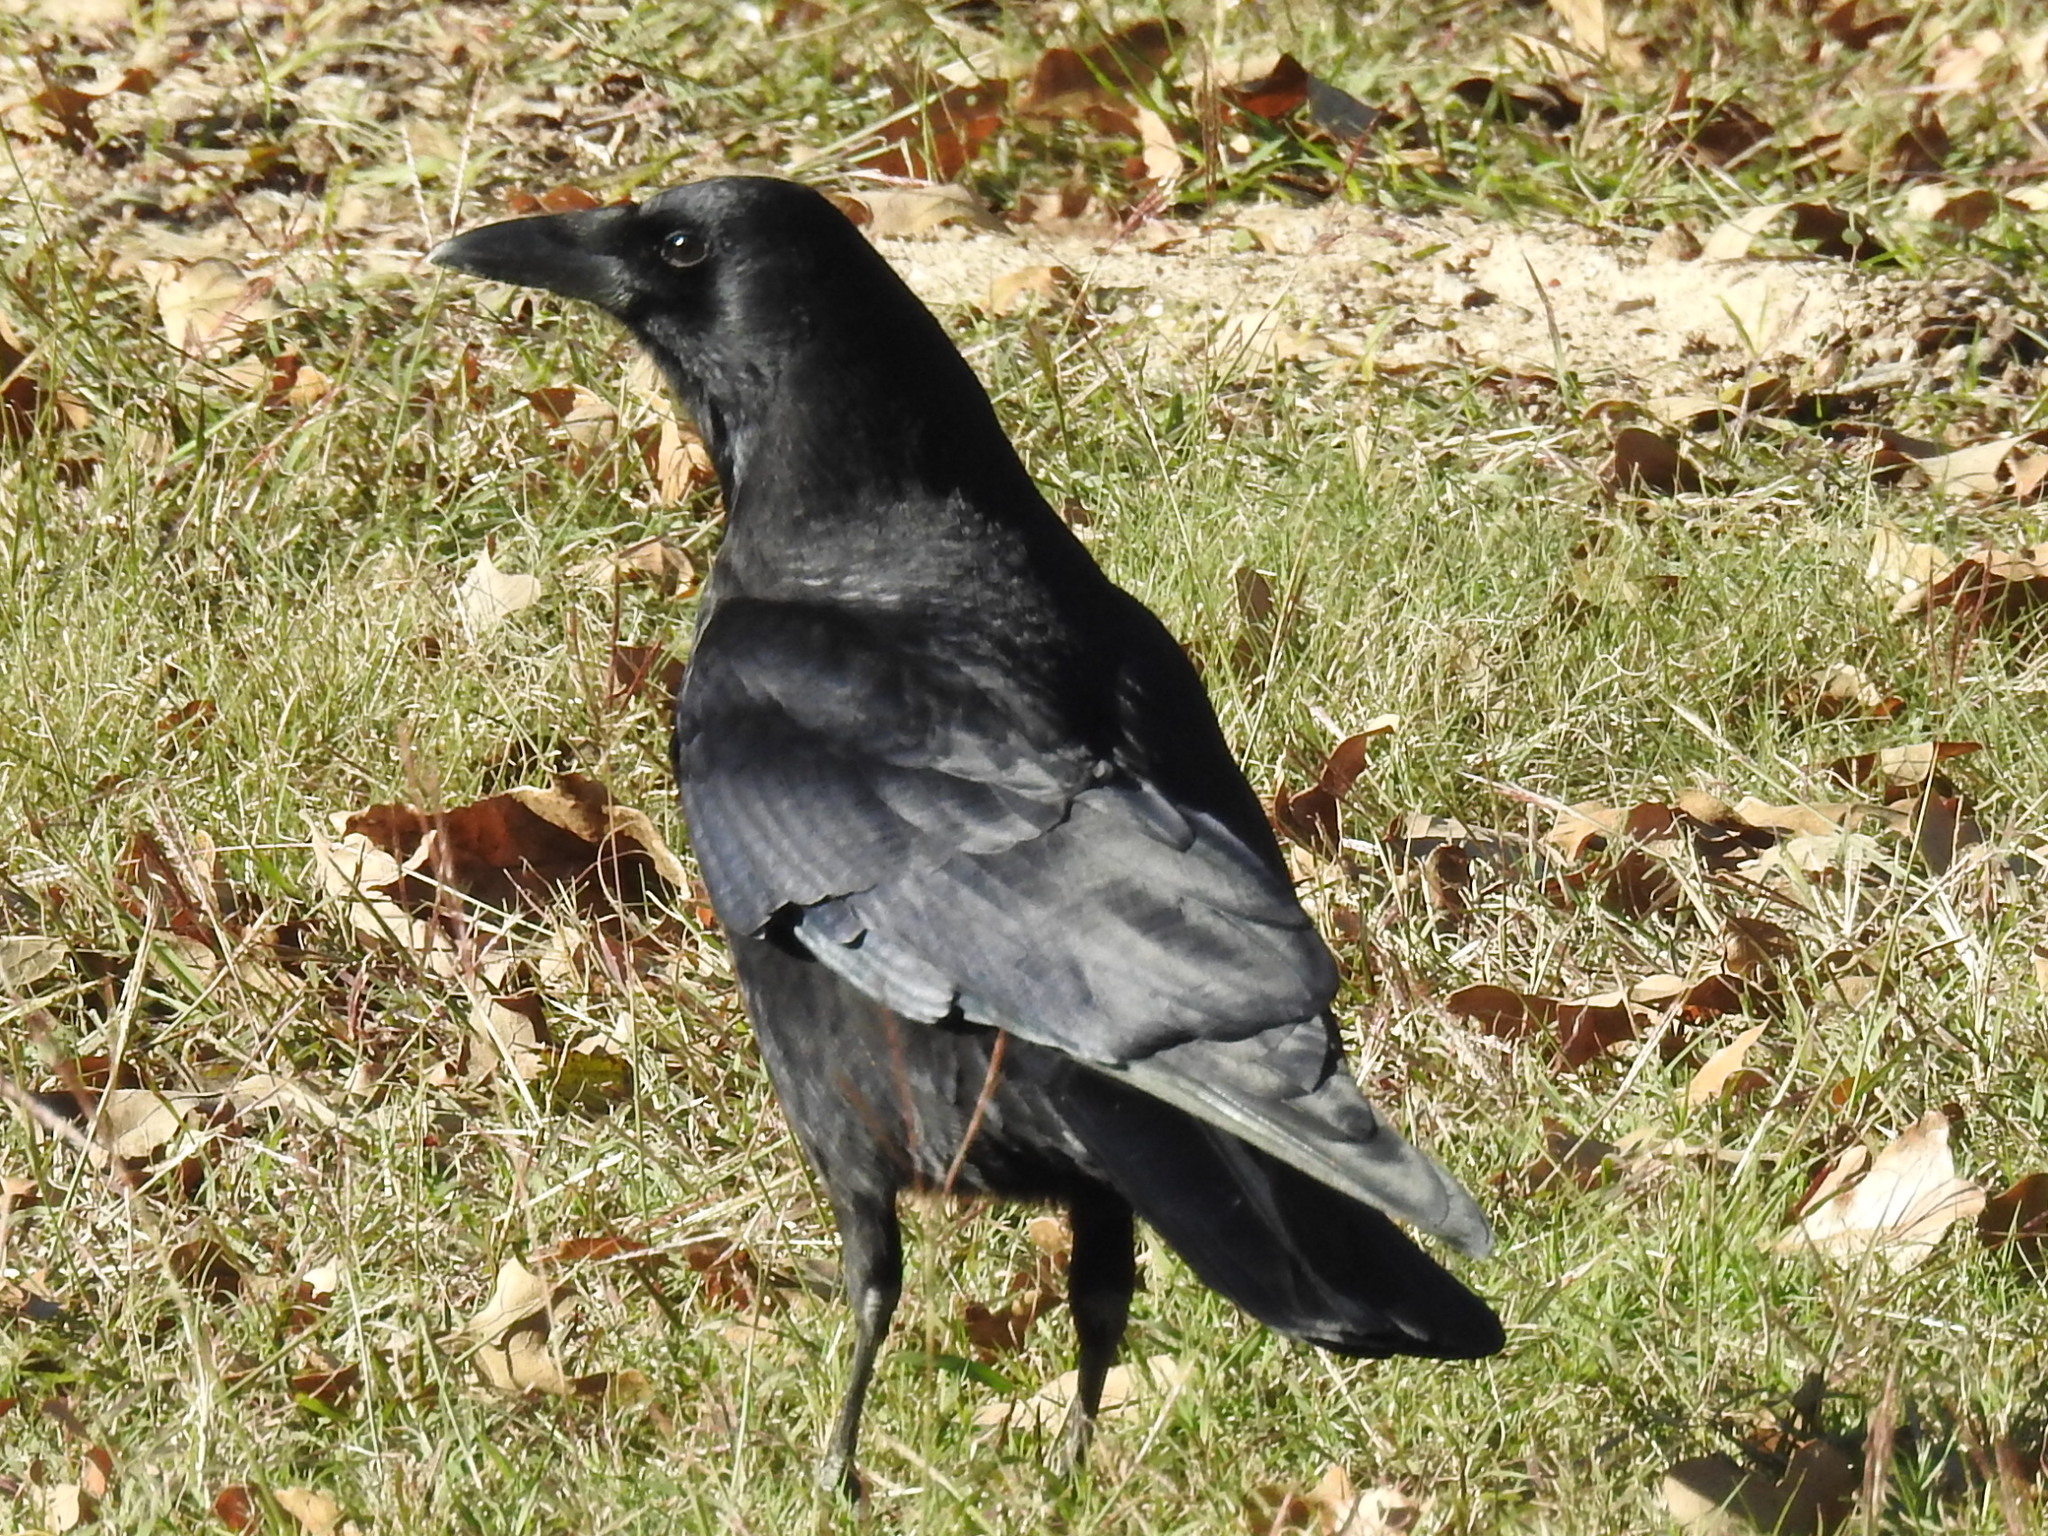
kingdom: Animalia
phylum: Chordata
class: Aves
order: Passeriformes
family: Corvidae
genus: Corvus
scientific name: Corvus brachyrhynchos
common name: American crow
